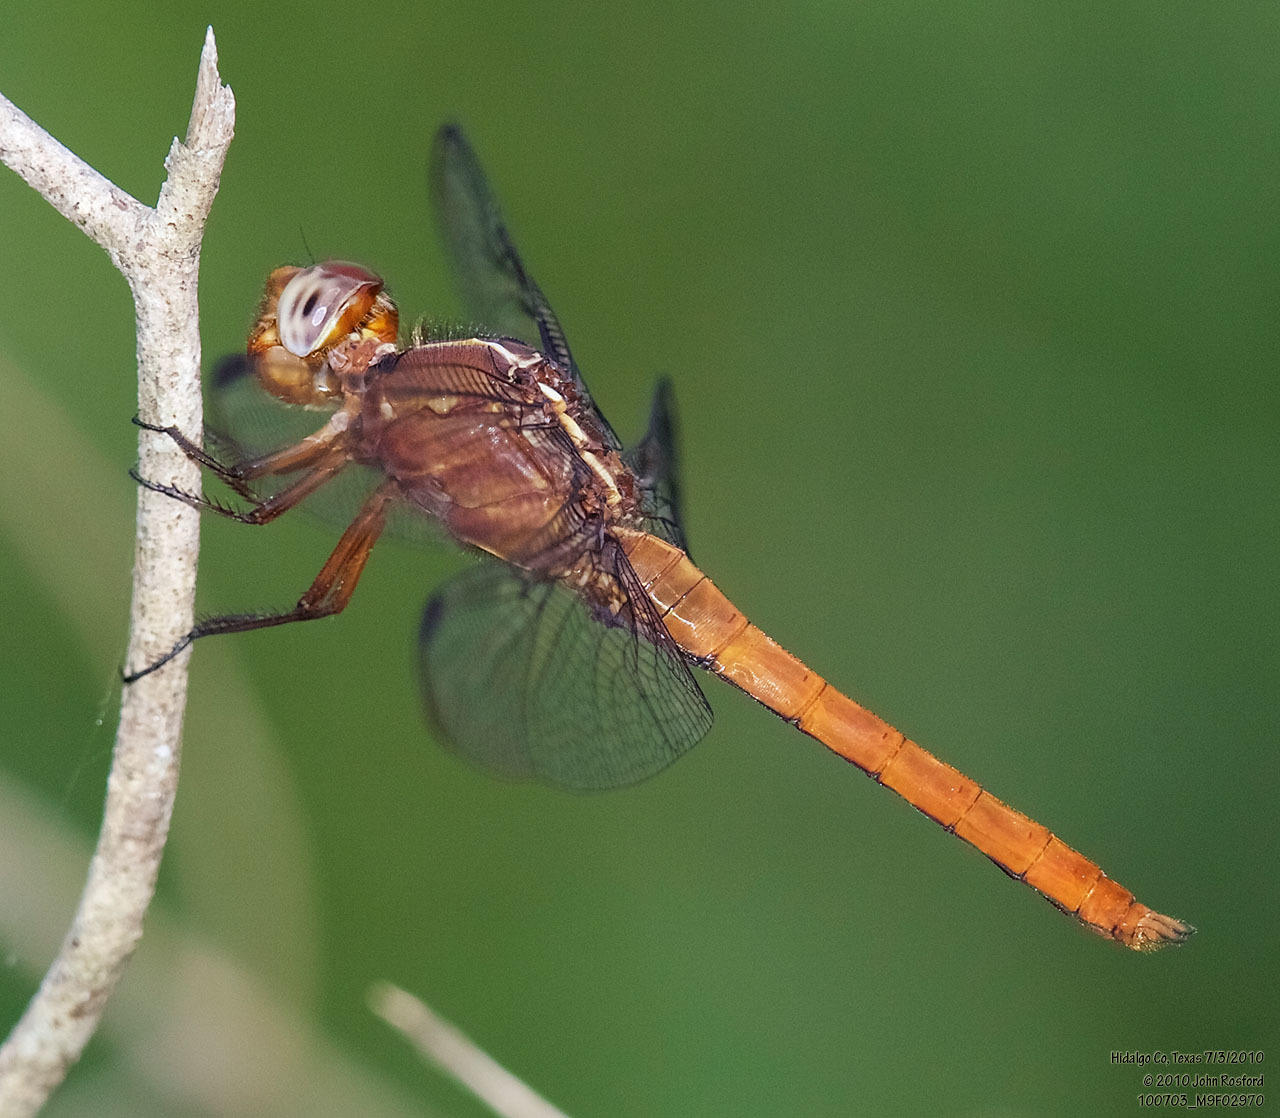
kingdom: Animalia
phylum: Arthropoda
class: Insecta
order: Odonata
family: Libellulidae
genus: Orthemis
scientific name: Orthemis discolor
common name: Carmine skimmer
